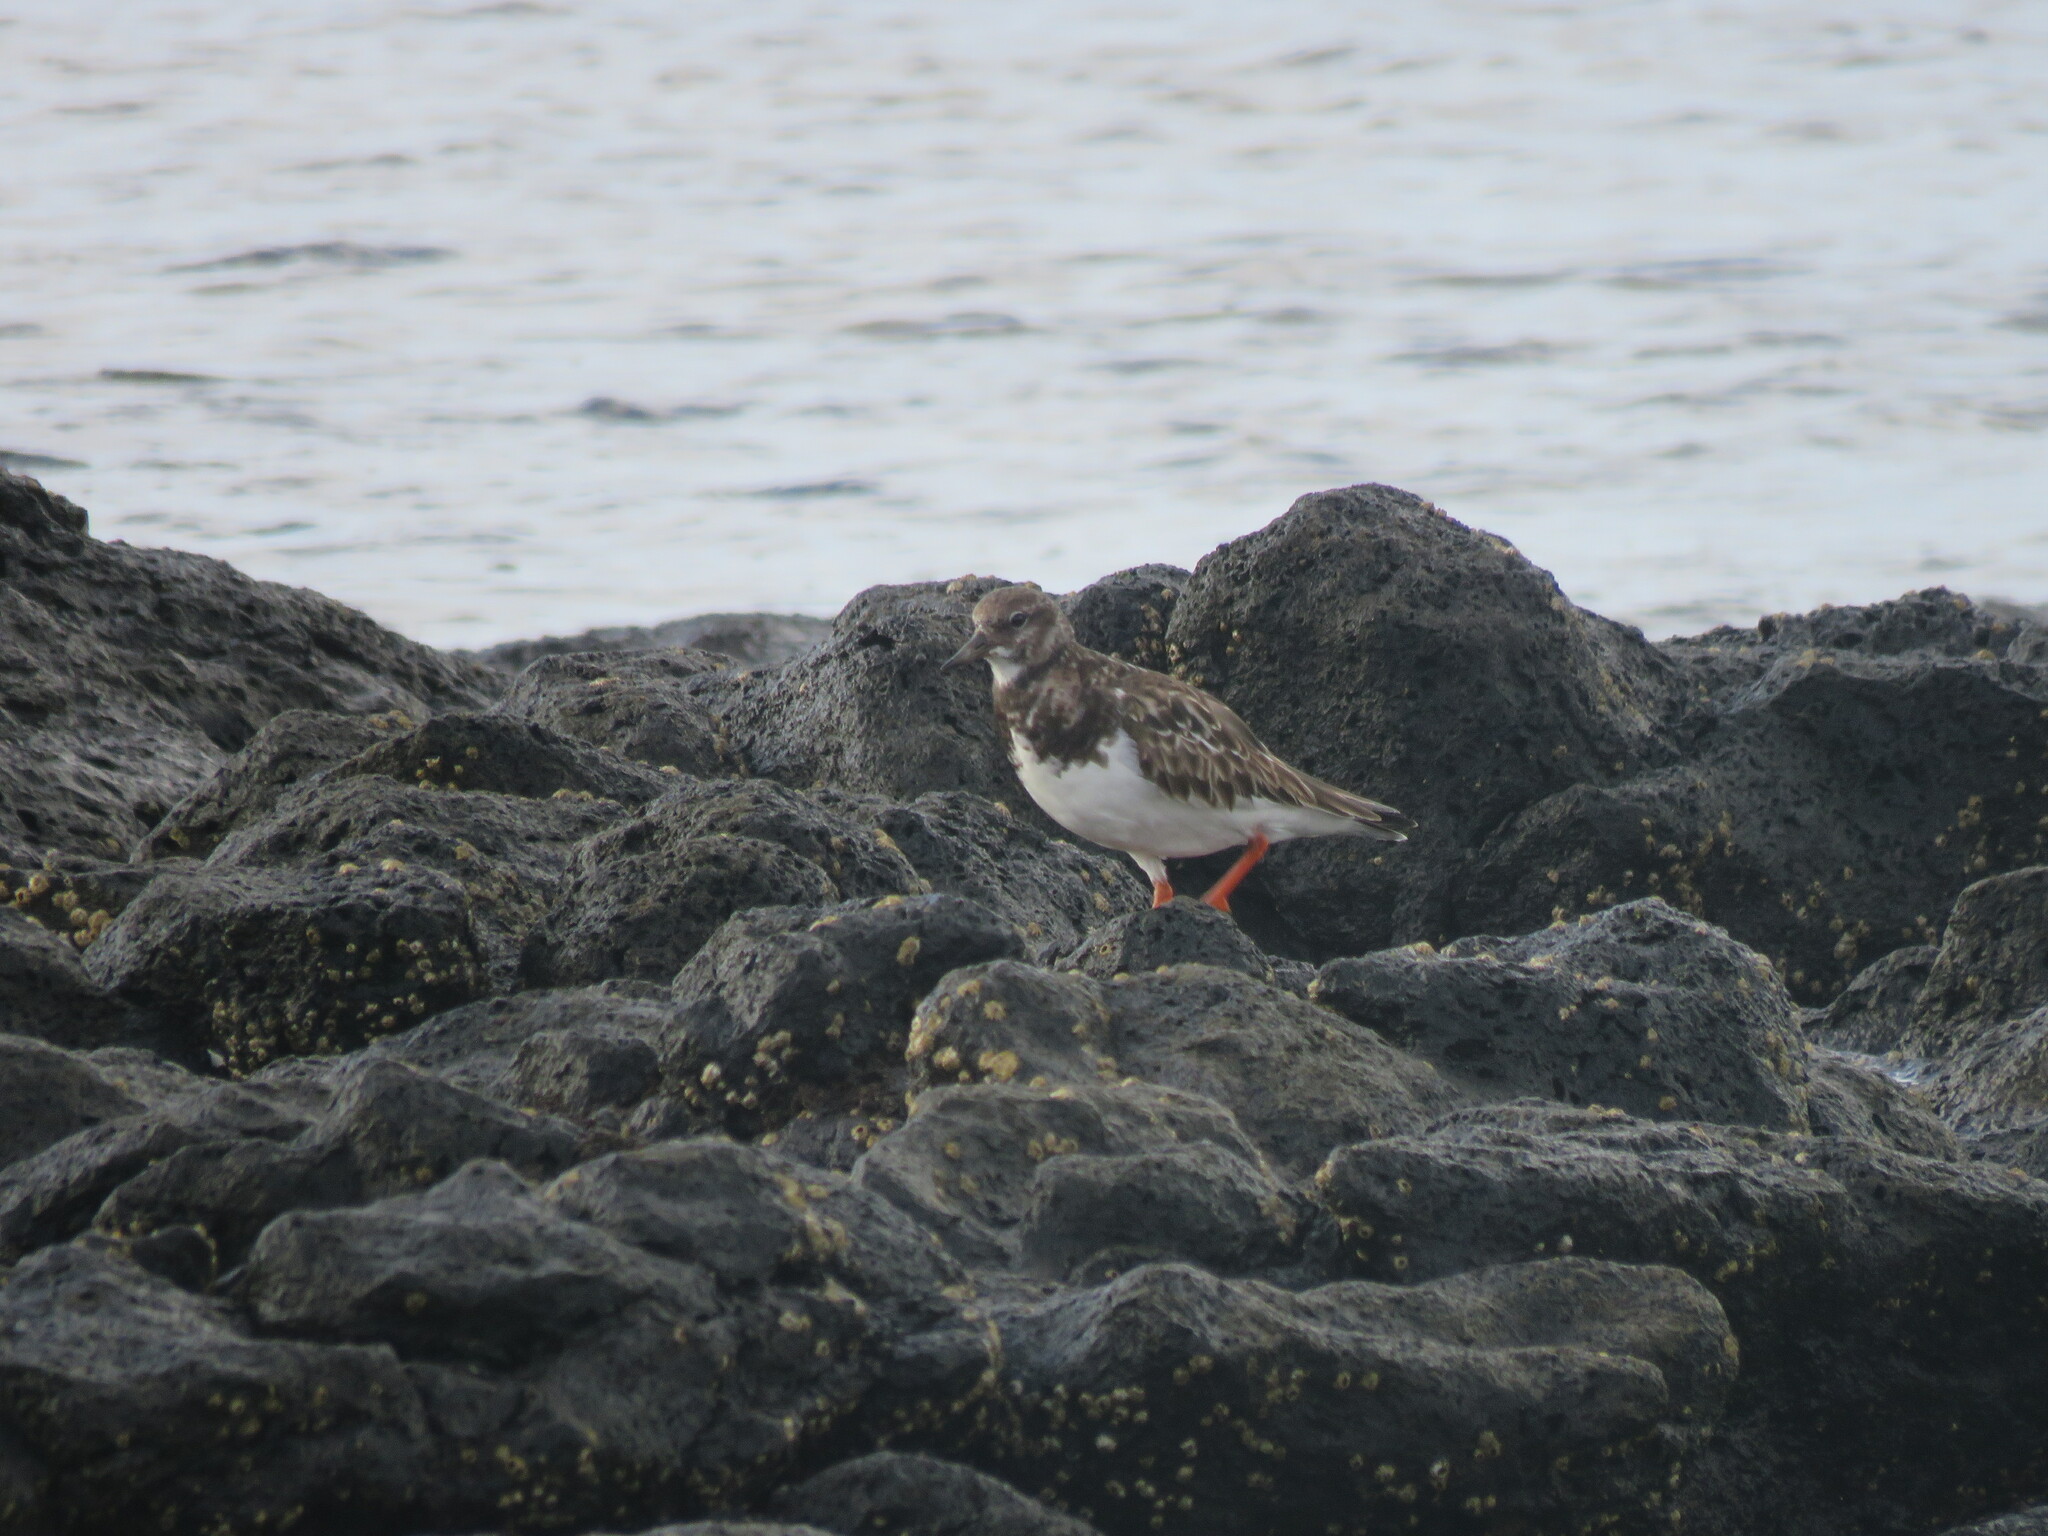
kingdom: Animalia
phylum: Chordata
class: Aves
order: Charadriiformes
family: Scolopacidae
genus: Arenaria
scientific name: Arenaria interpres
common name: Ruddy turnstone
